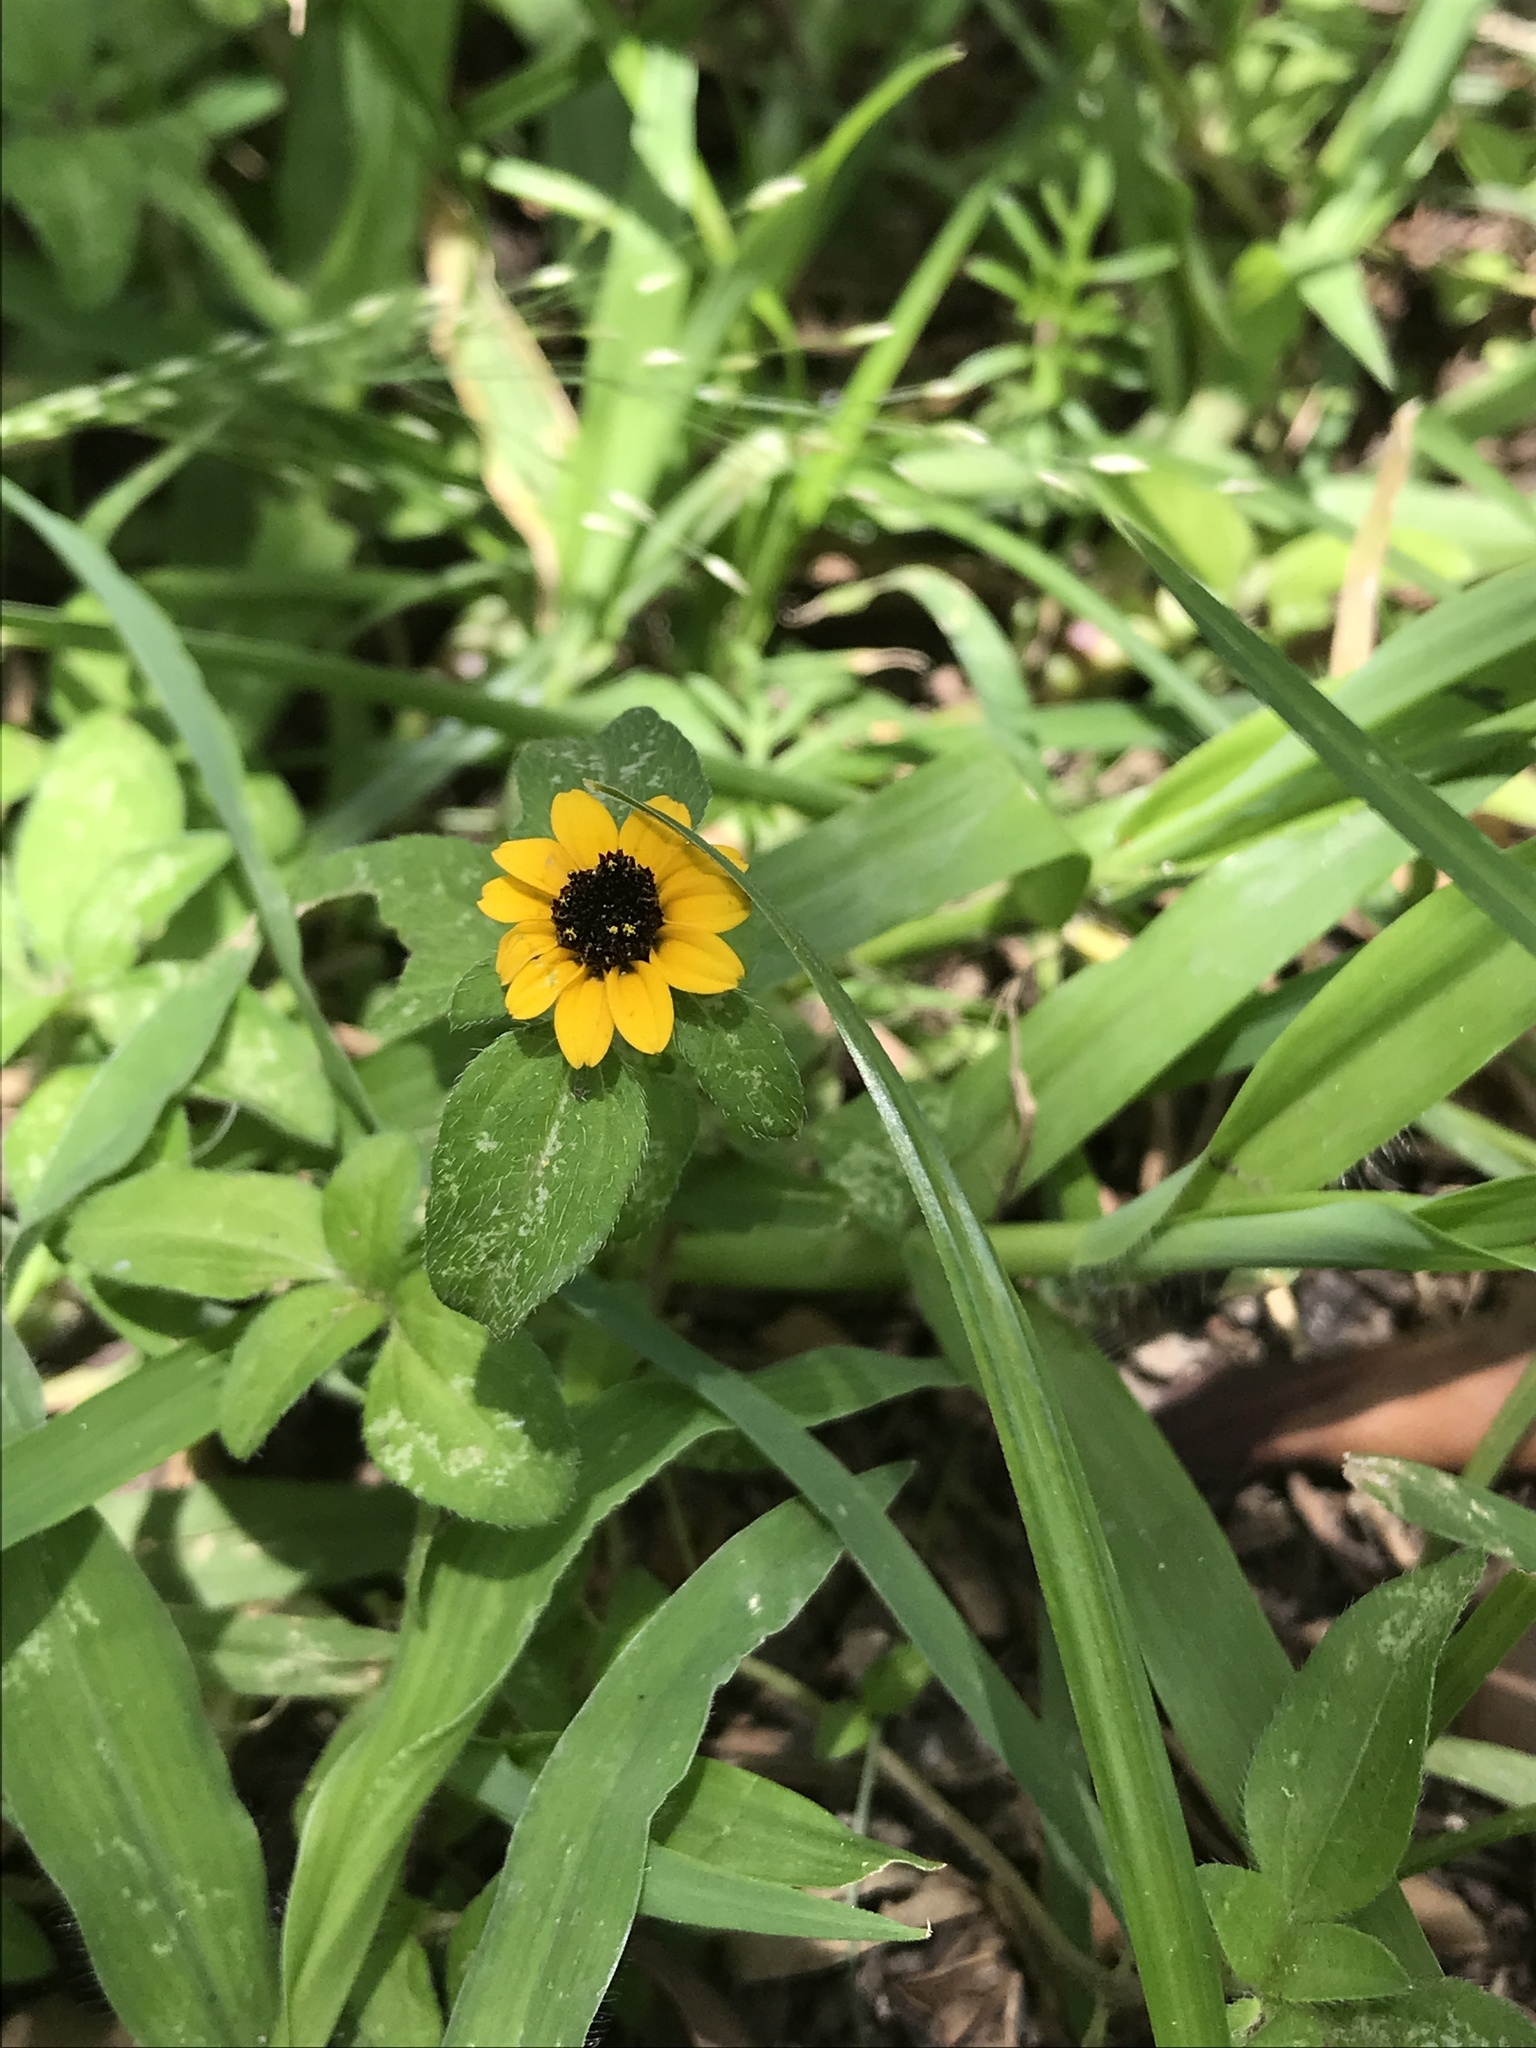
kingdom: Plantae
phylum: Tracheophyta
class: Magnoliopsida
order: Asterales
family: Asteraceae
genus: Sanvitalia
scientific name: Sanvitalia procumbens
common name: Mexican creeping zinnia
